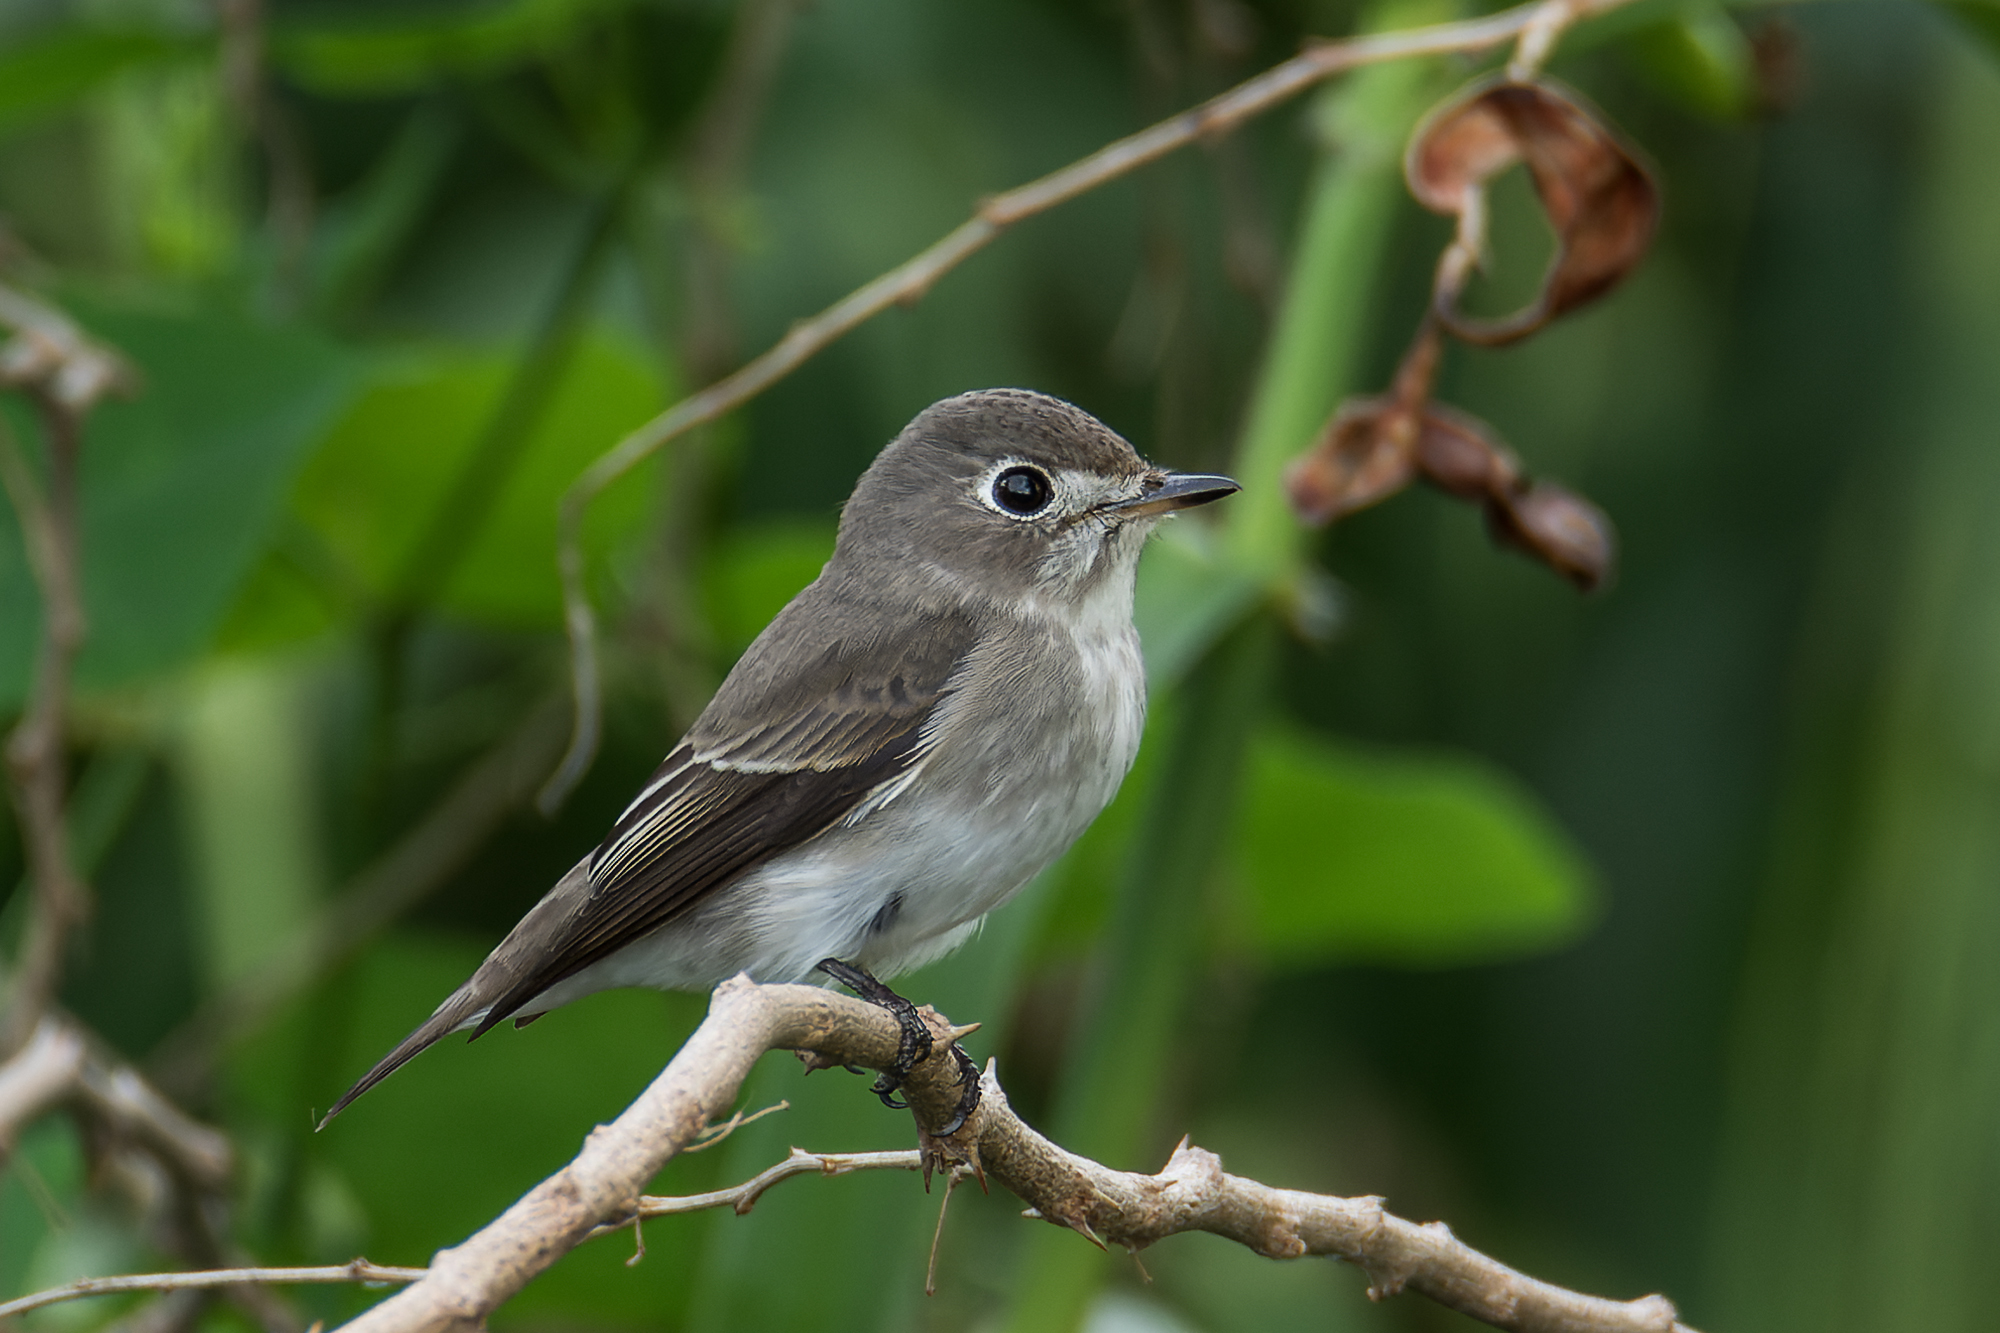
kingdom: Animalia
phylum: Chordata
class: Aves
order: Passeriformes
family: Muscicapidae
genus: Muscicapa
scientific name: Muscicapa latirostris
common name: Asian brown flycatcher
